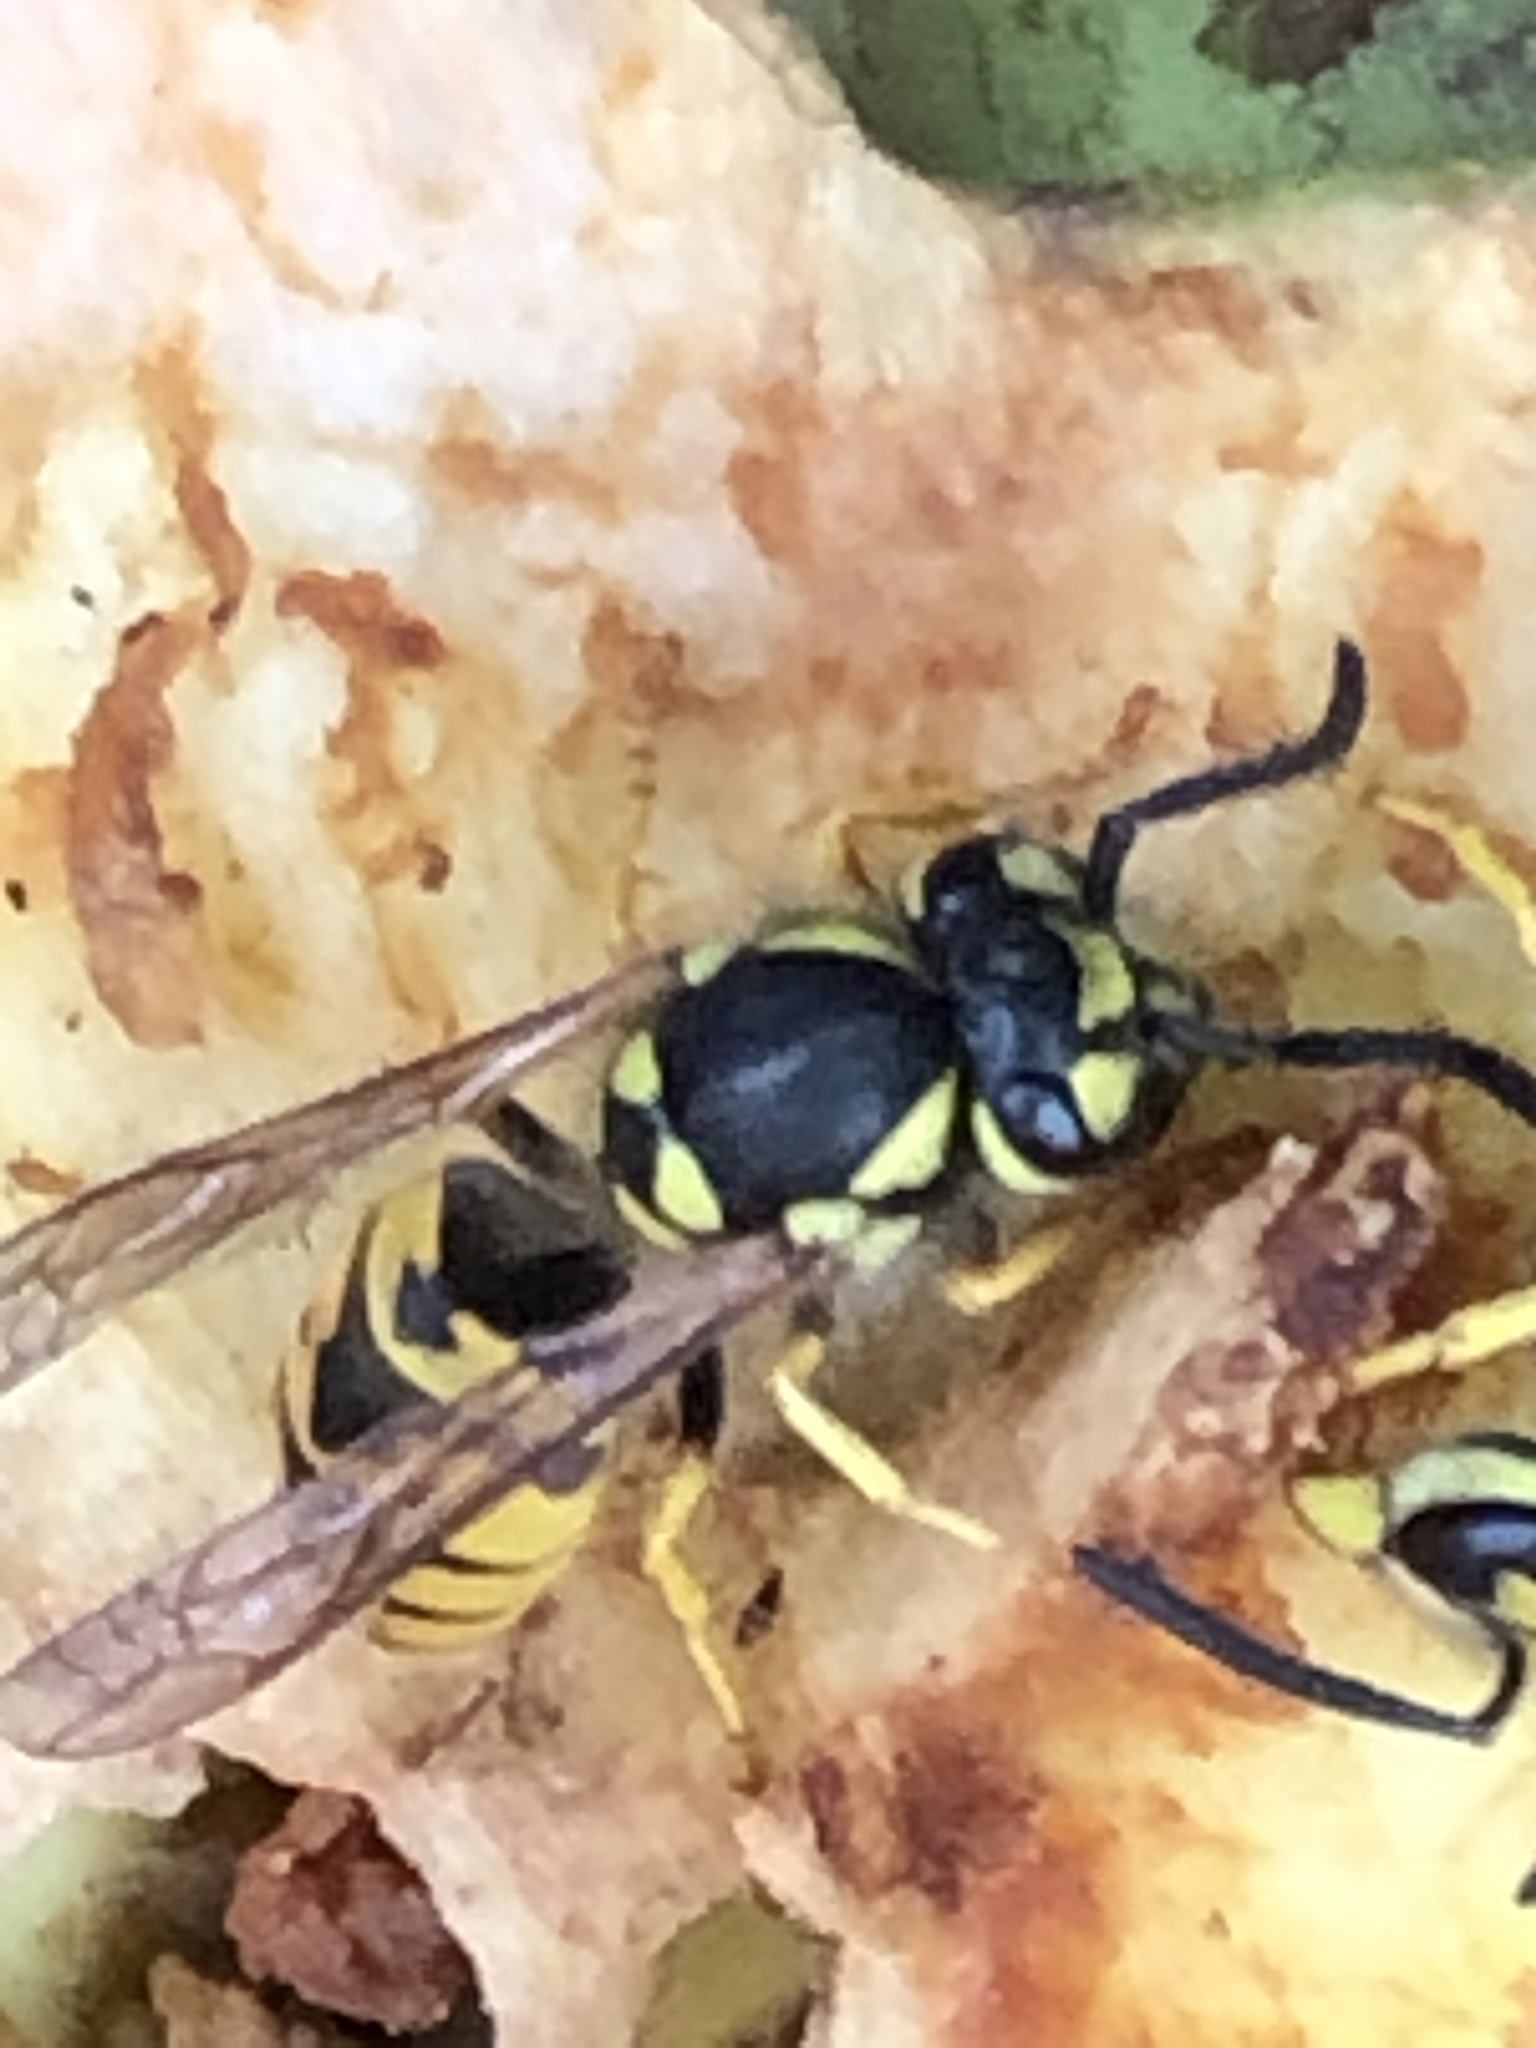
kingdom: Animalia
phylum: Arthropoda
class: Insecta
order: Hymenoptera
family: Vespidae
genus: Vespula
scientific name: Vespula germanica
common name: German wasp
